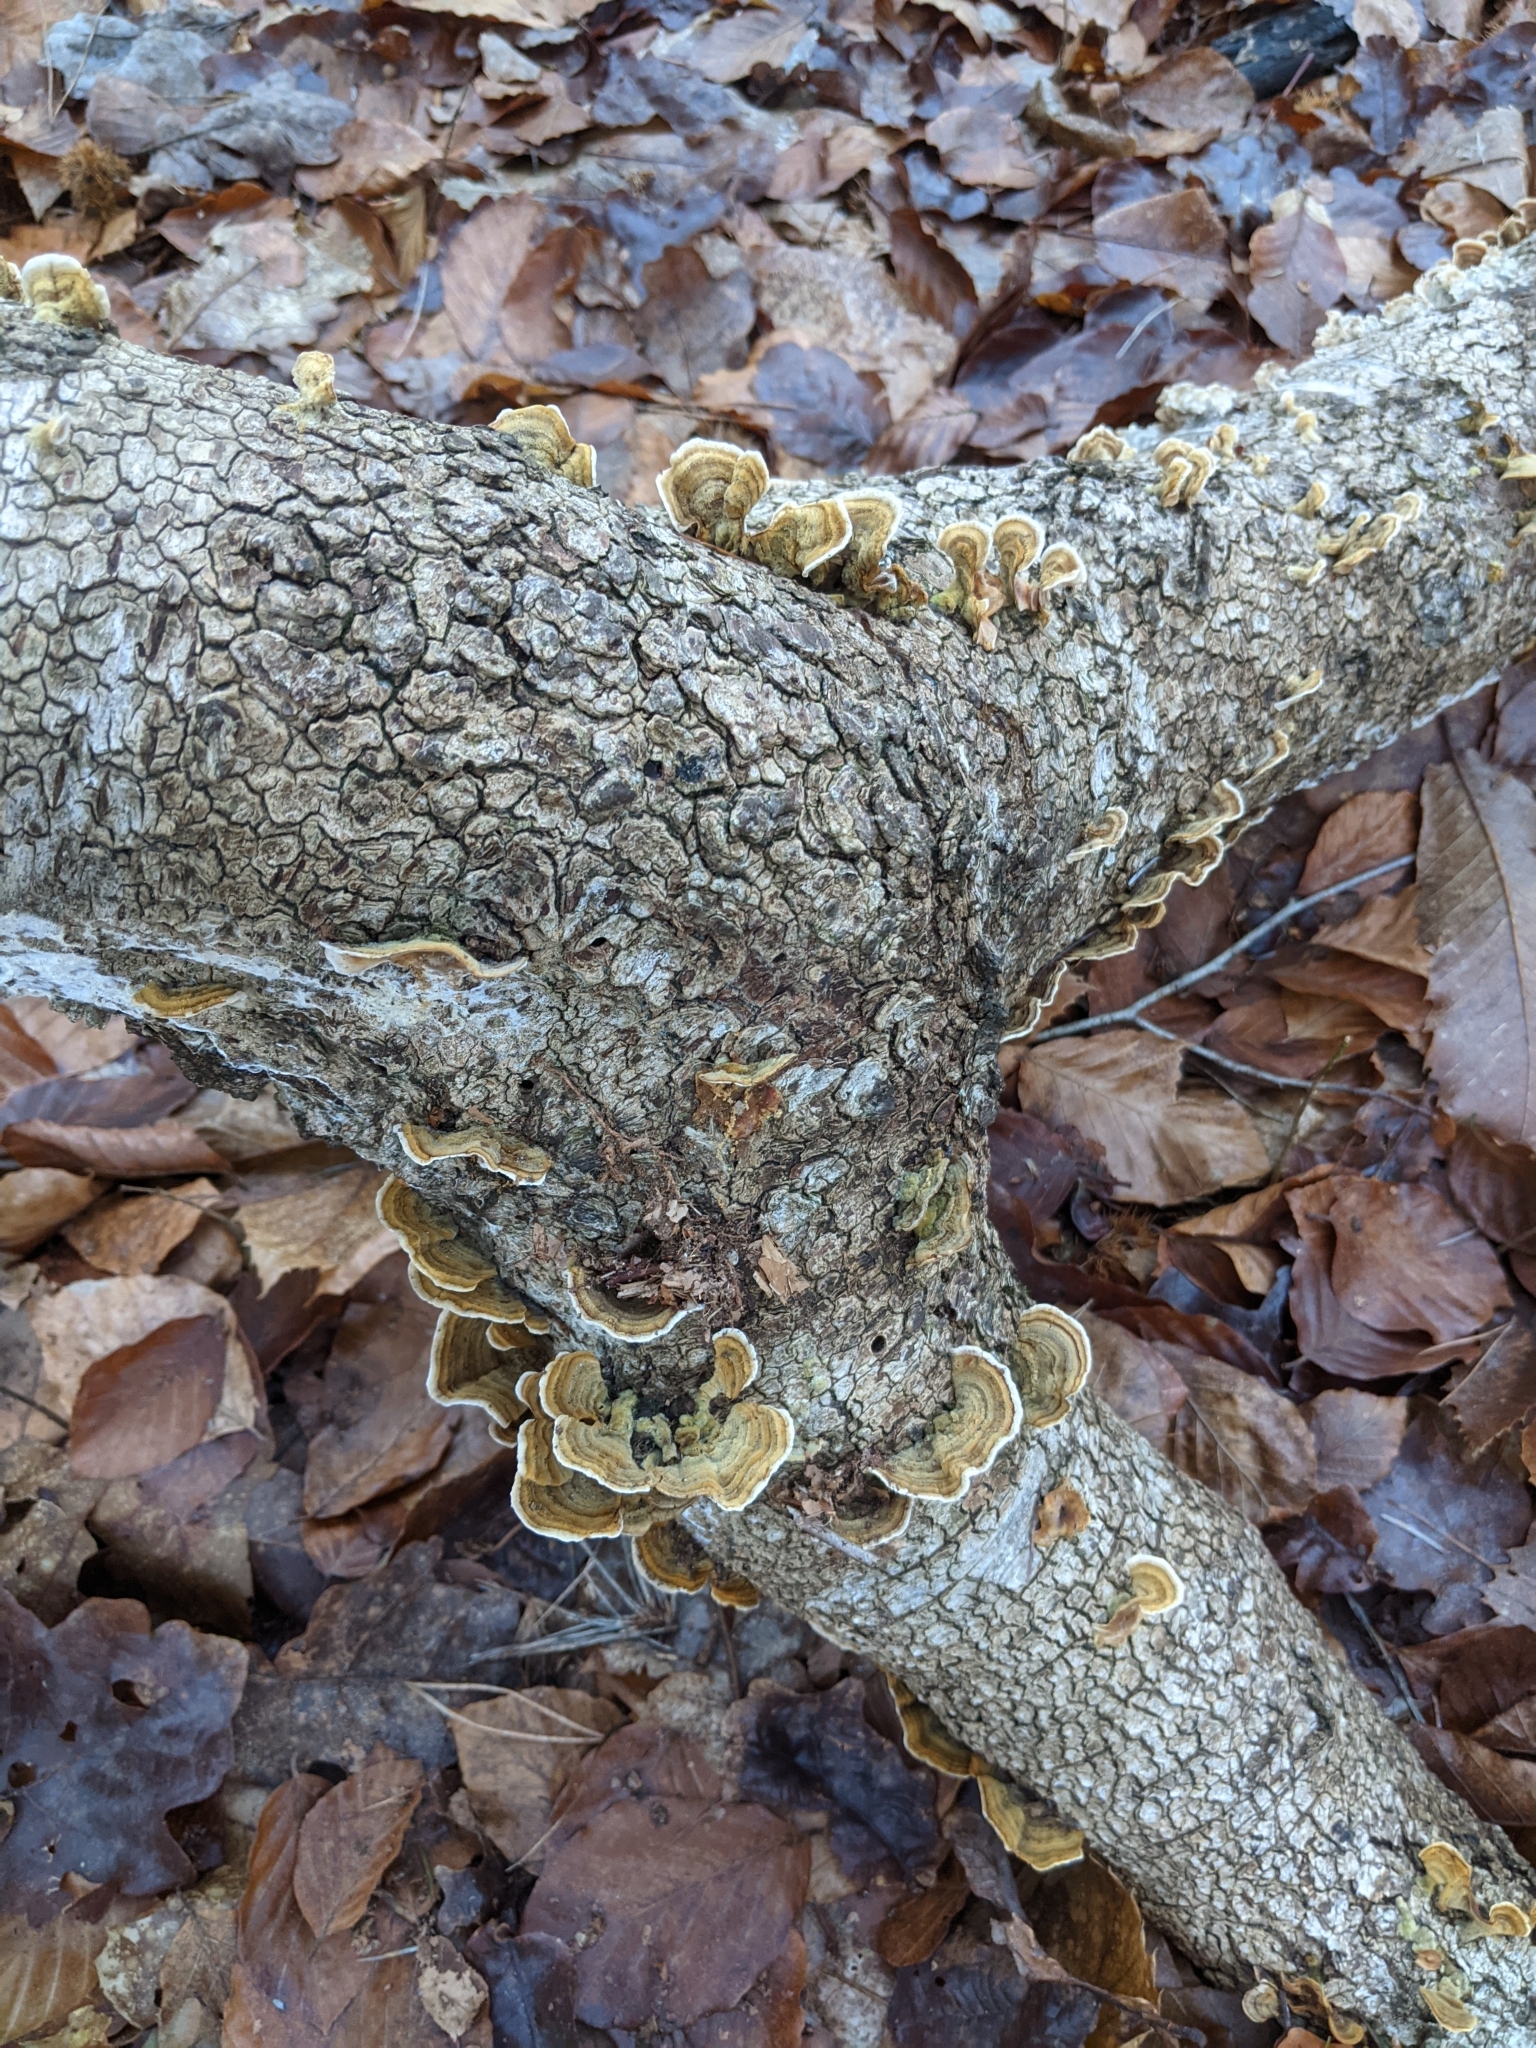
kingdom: Fungi
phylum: Basidiomycota
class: Agaricomycetes
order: Russulales
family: Stereaceae
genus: Stereum
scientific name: Stereum subtomentosum
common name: Yellowing curtain crust
